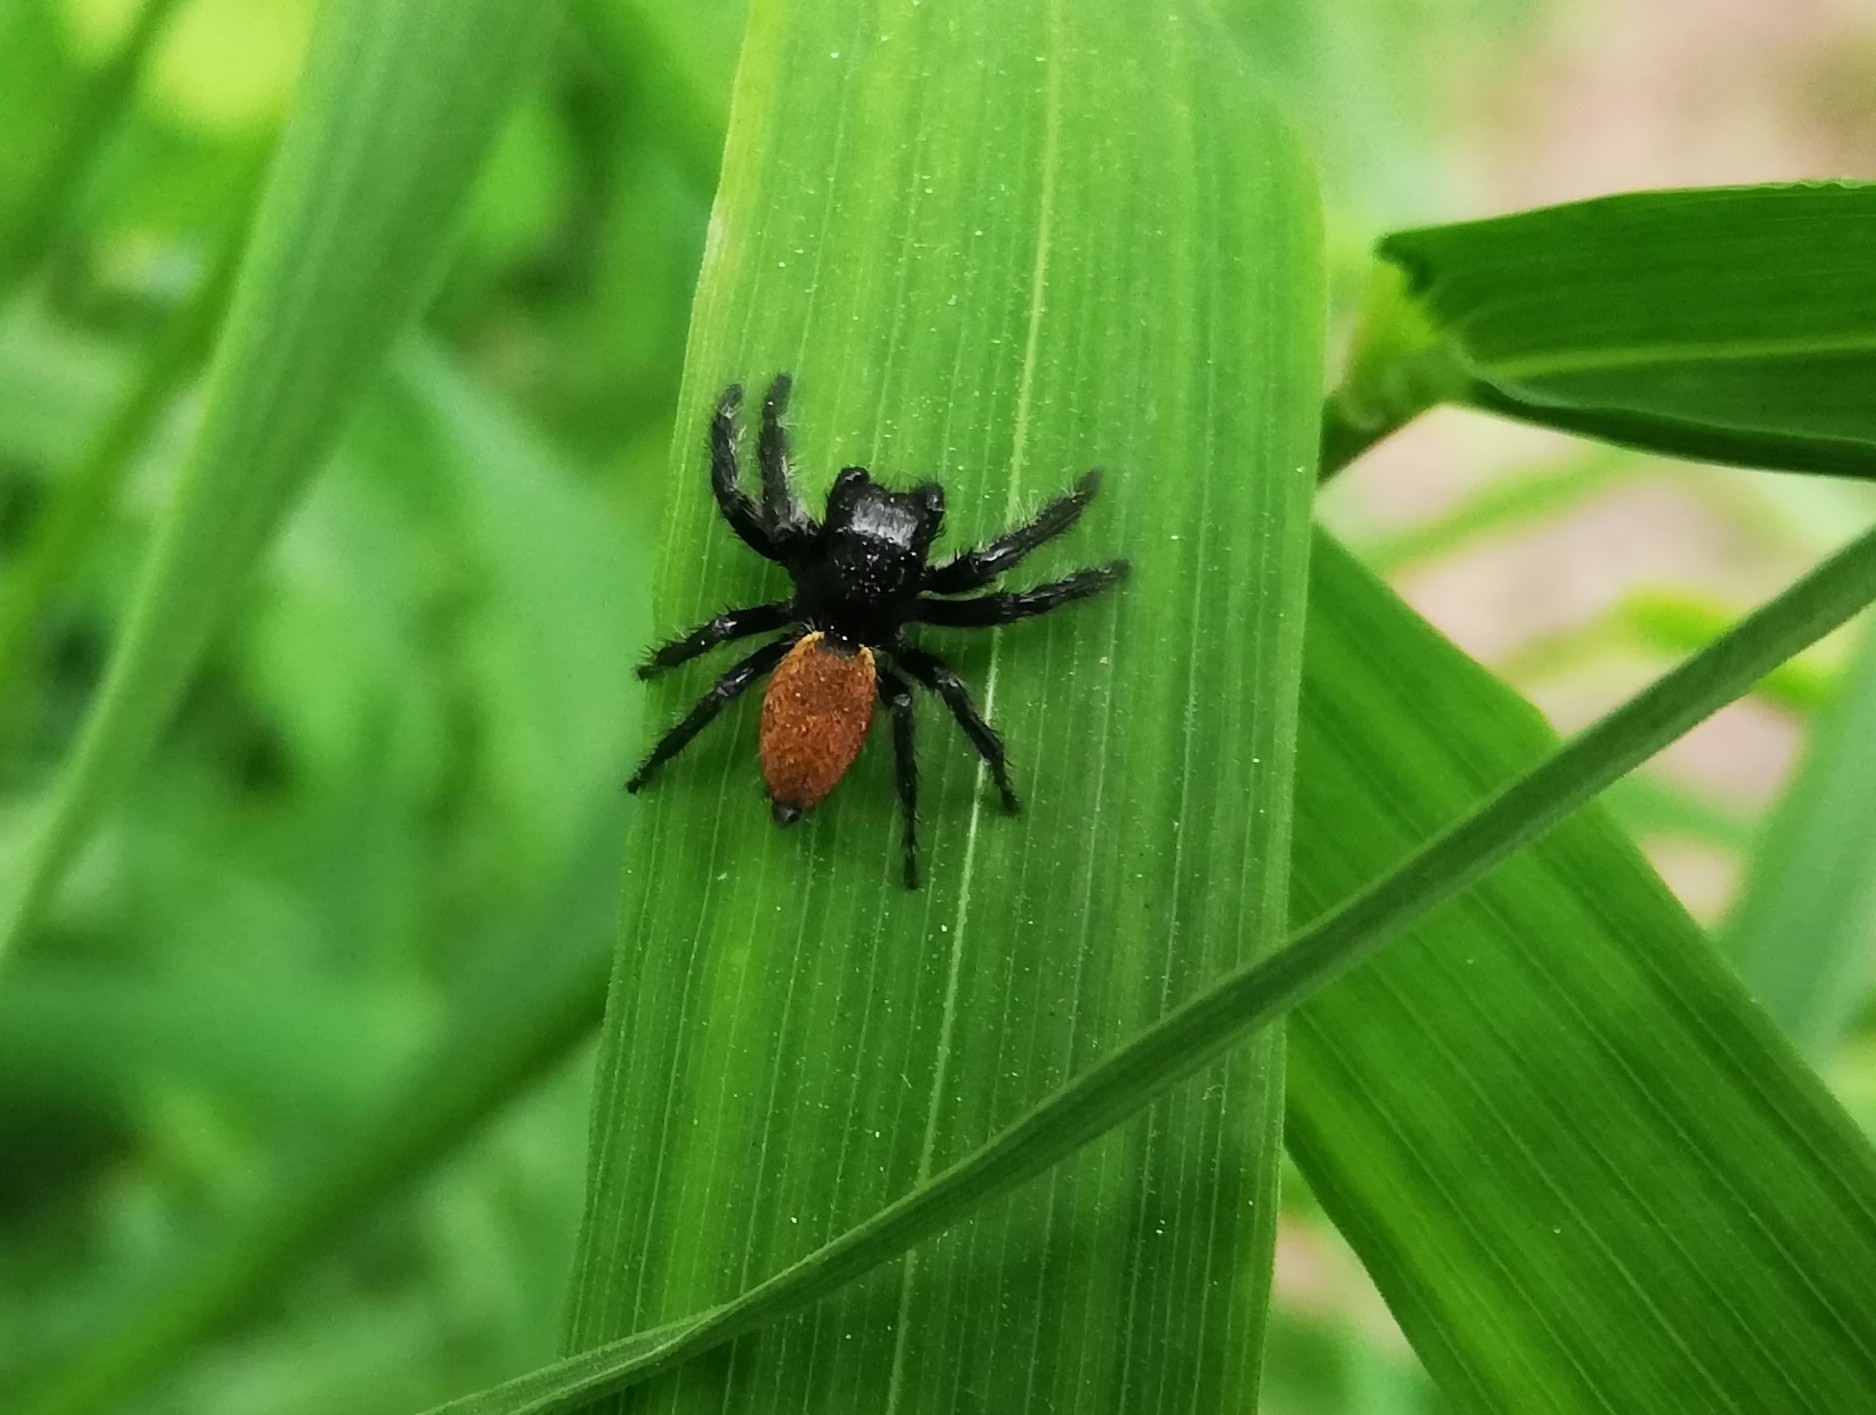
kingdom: Animalia
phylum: Arthropoda
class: Arachnida
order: Araneae
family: Salticidae
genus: Carrhotus
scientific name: Carrhotus xanthogramma
